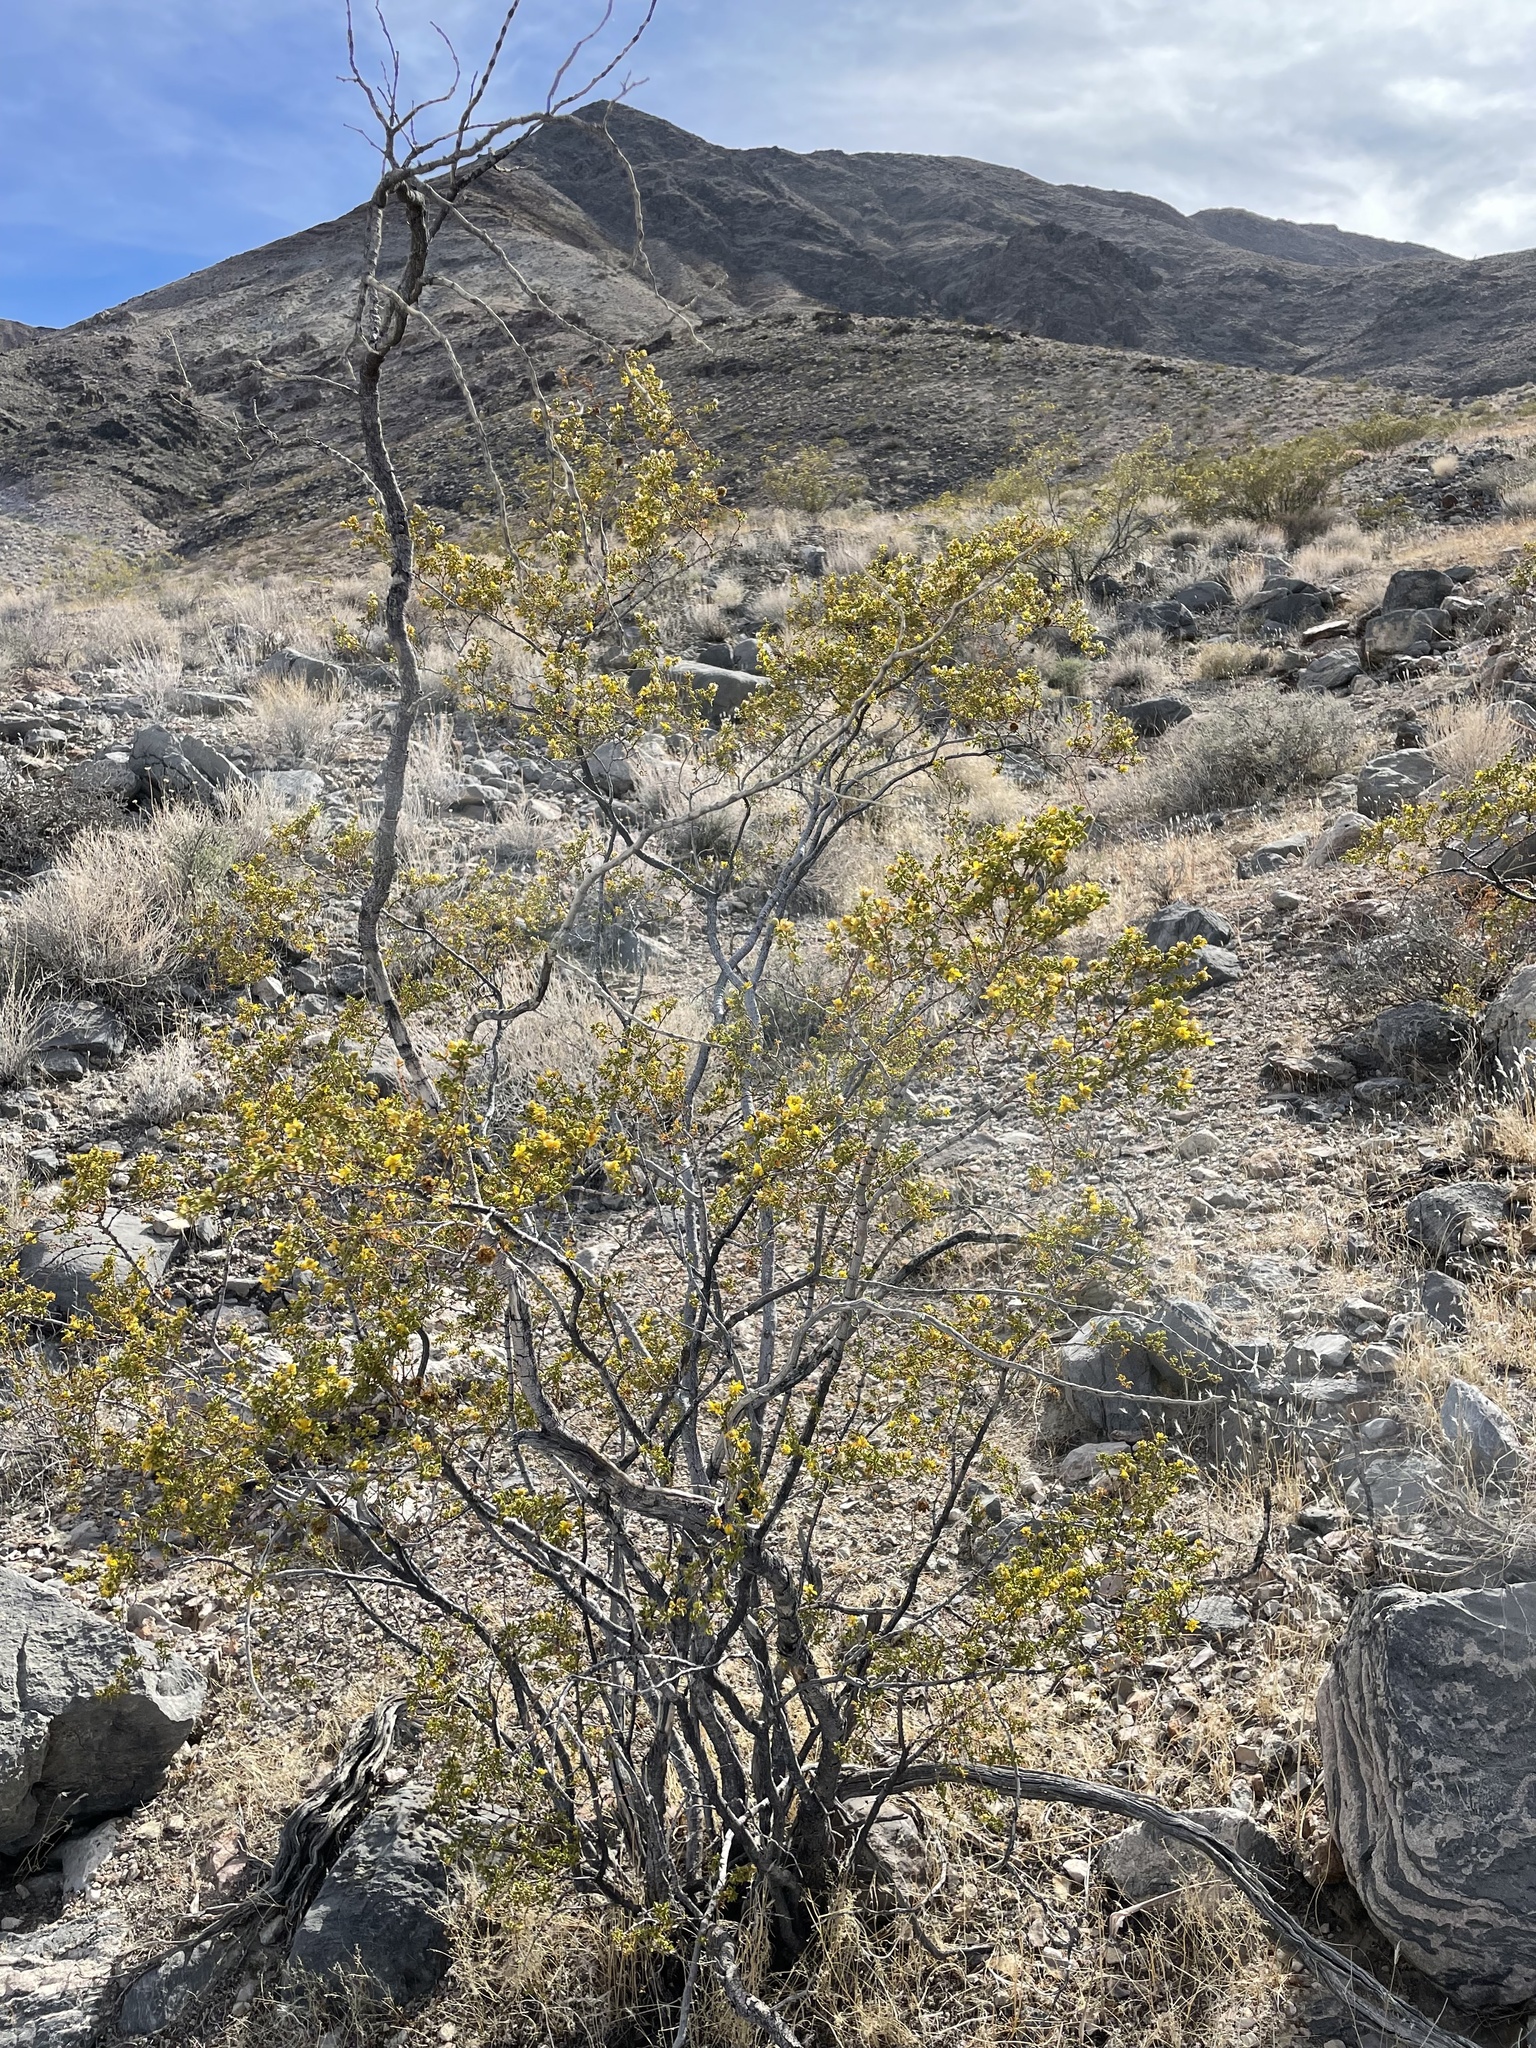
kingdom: Plantae
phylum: Tracheophyta
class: Magnoliopsida
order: Zygophyllales
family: Zygophyllaceae
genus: Larrea
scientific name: Larrea tridentata
